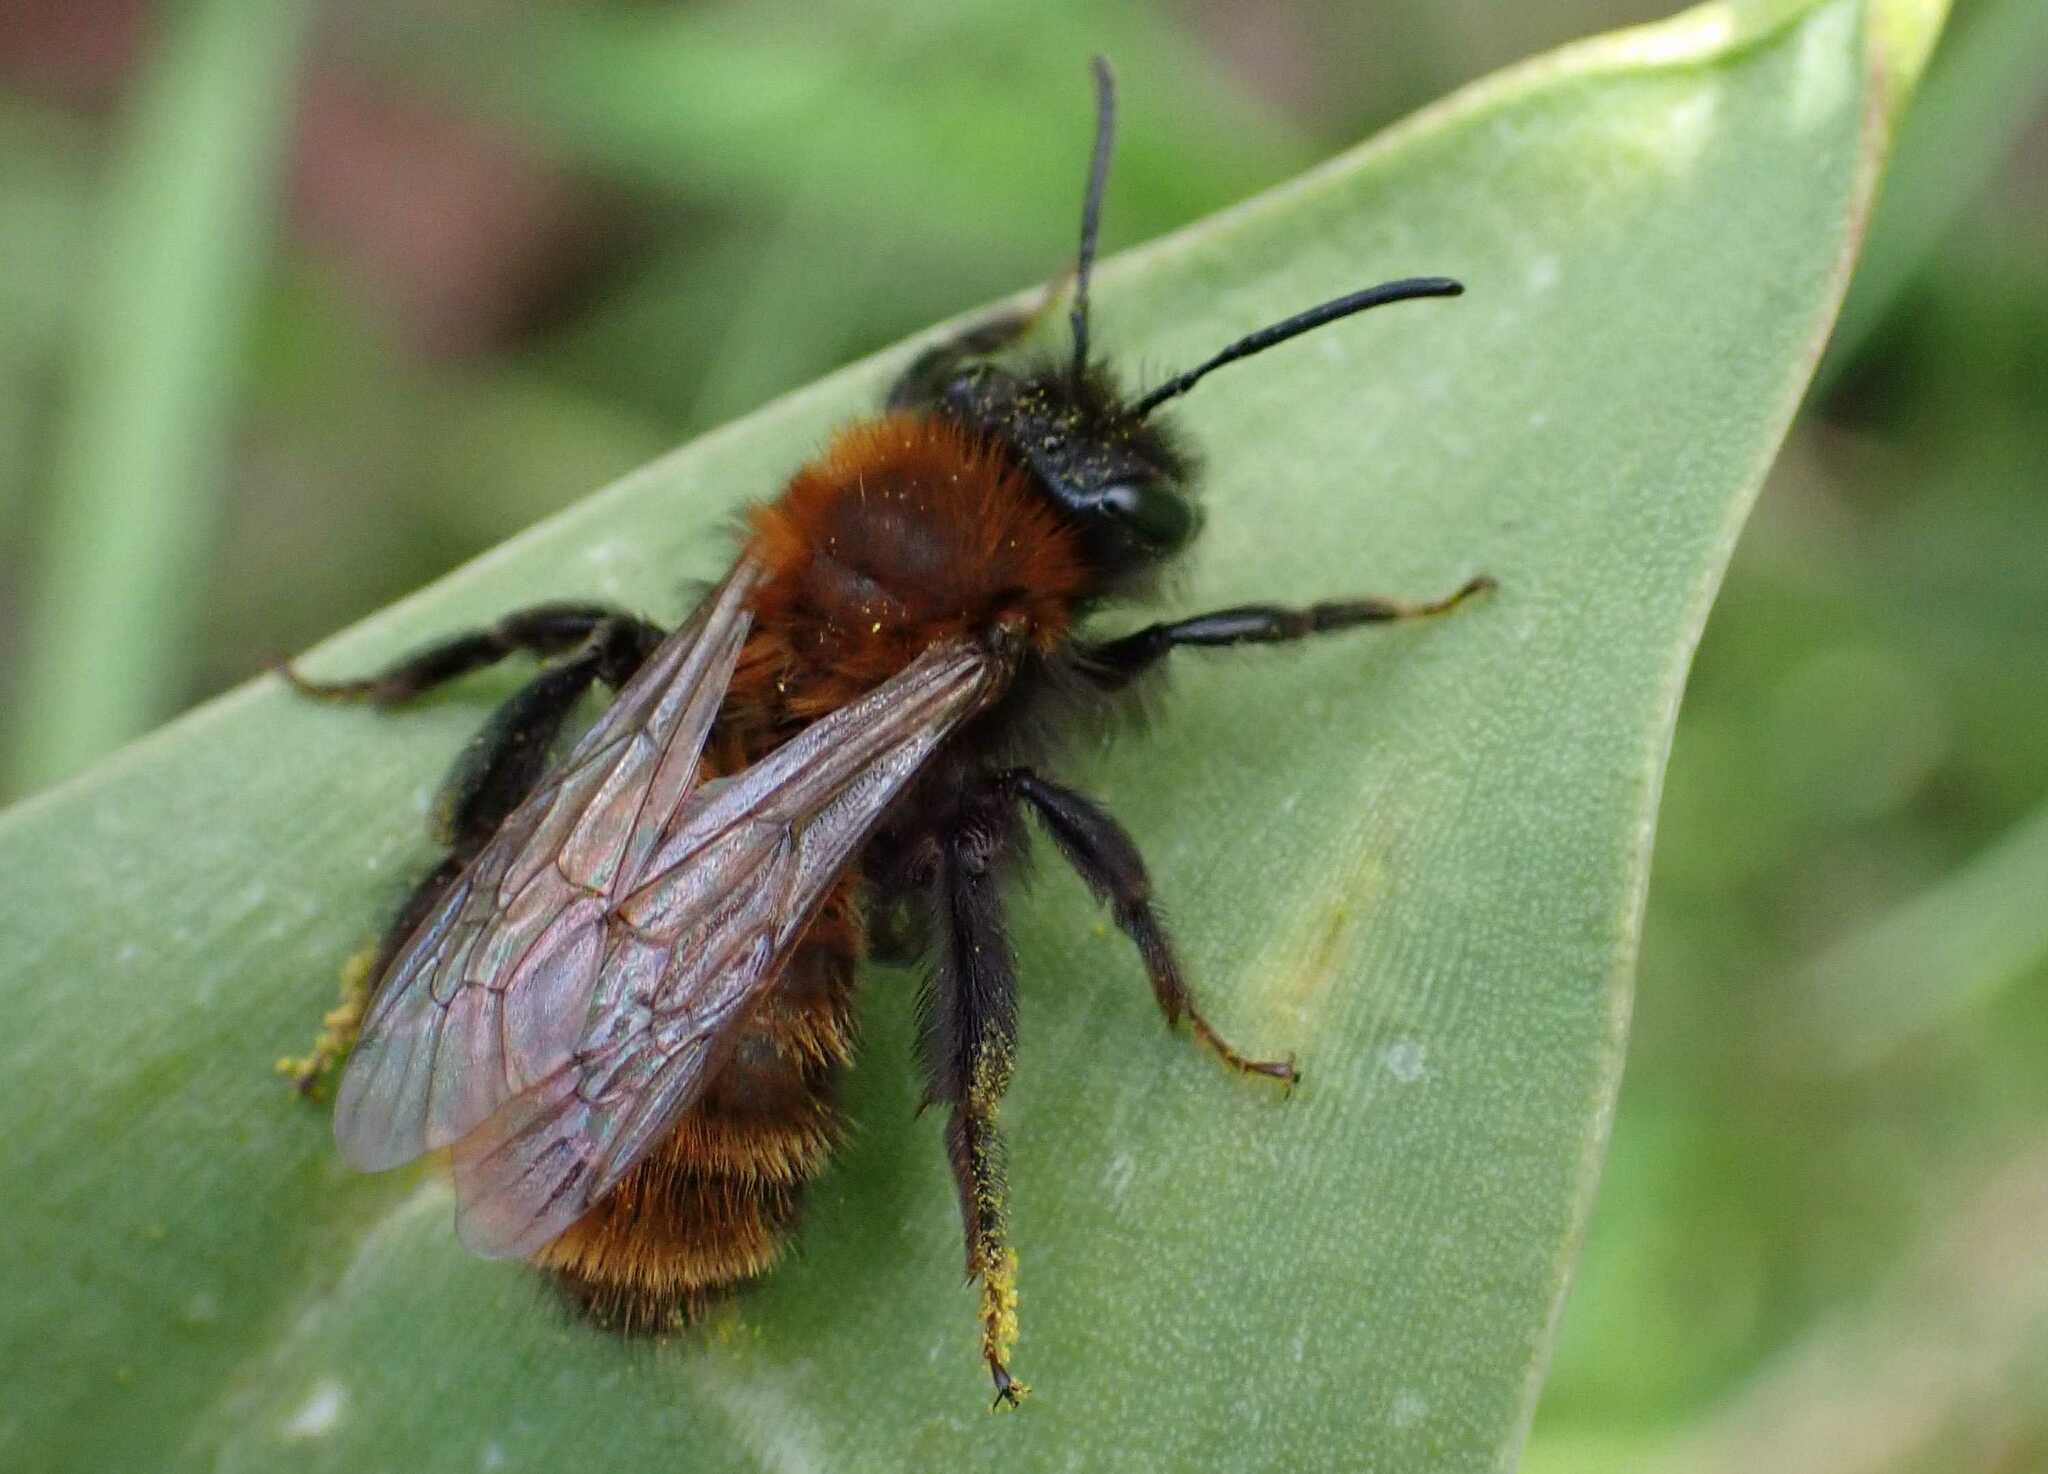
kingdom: Animalia
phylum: Arthropoda
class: Insecta
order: Hymenoptera
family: Andrenidae
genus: Andrena
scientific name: Andrena fulva
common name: Tawny mining bee
